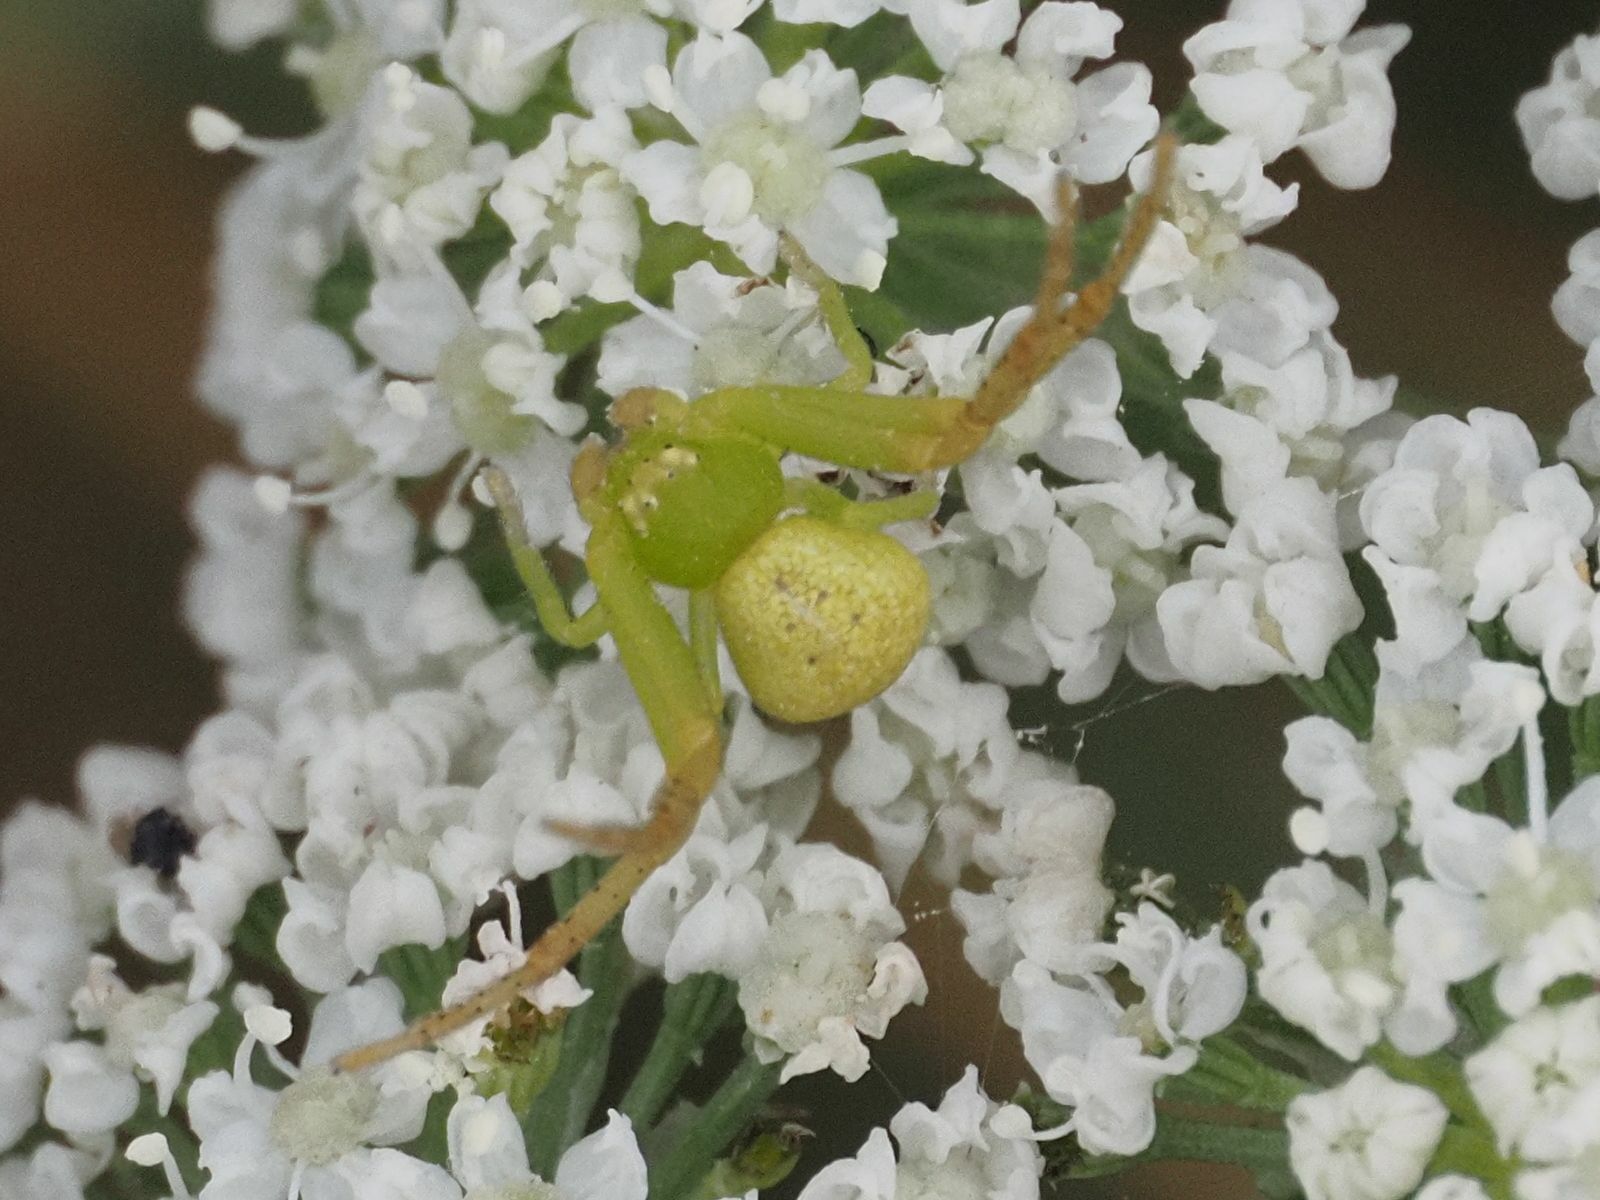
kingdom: Animalia
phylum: Arthropoda
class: Arachnida
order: Araneae
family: Thomisidae
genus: Ebrechtella
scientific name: Ebrechtella tricuspidata
